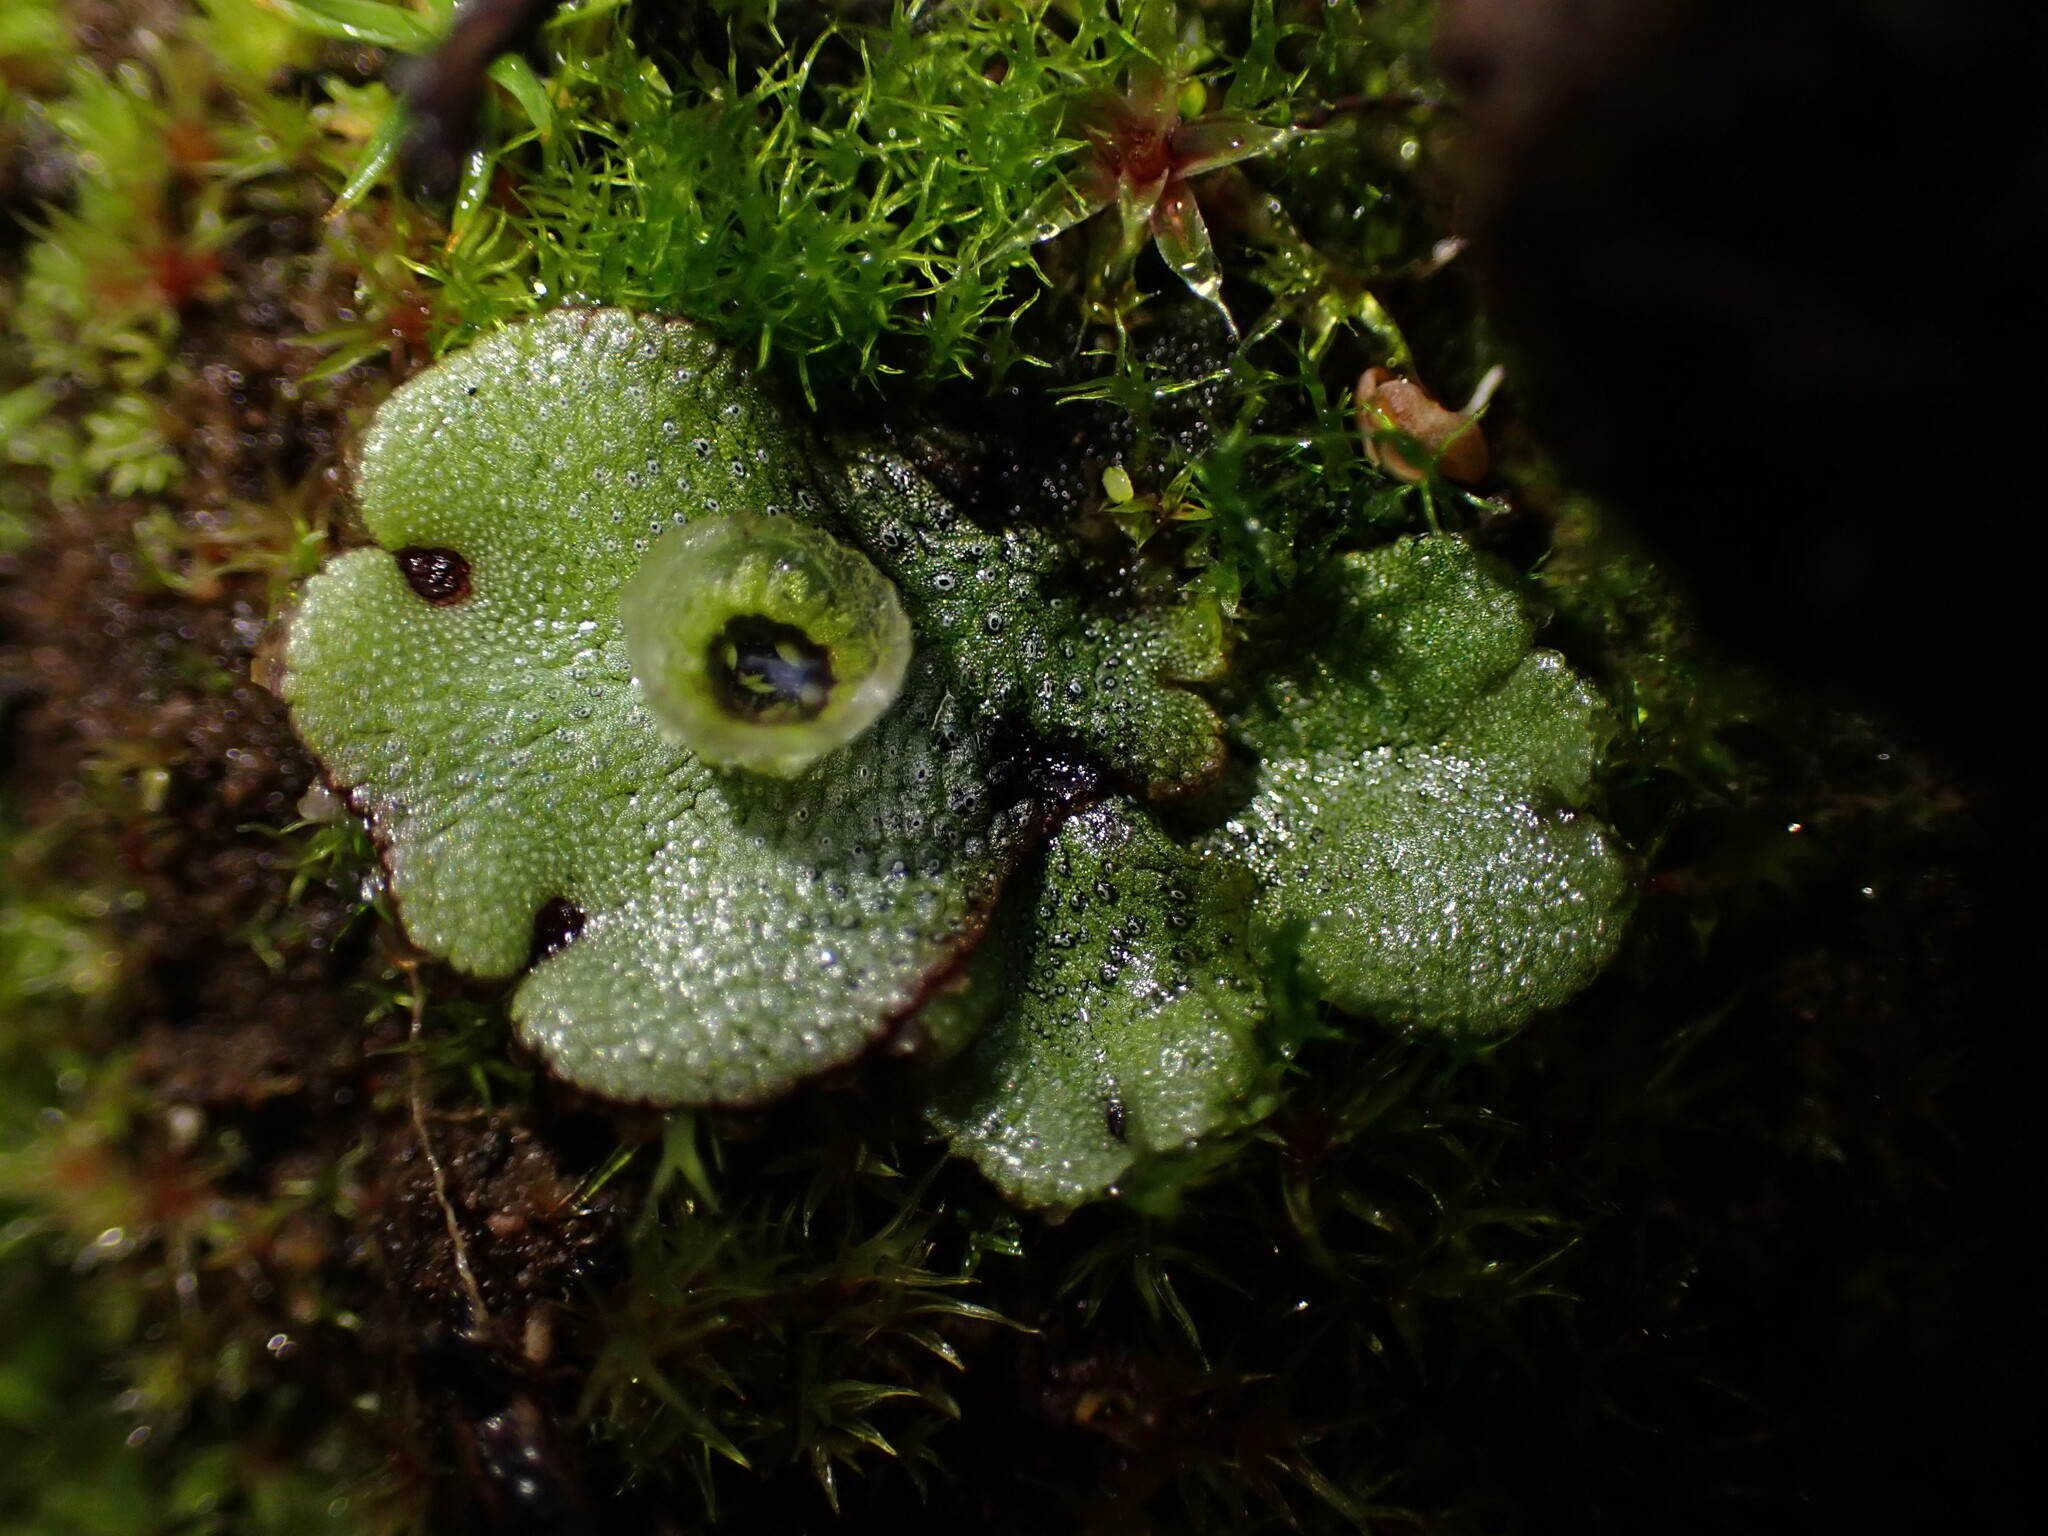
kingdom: Plantae
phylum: Marchantiophyta
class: Marchantiopsida
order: Marchantiales
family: Marchantiaceae
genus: Marchantia
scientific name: Marchantia polymorpha
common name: Common liverwort
